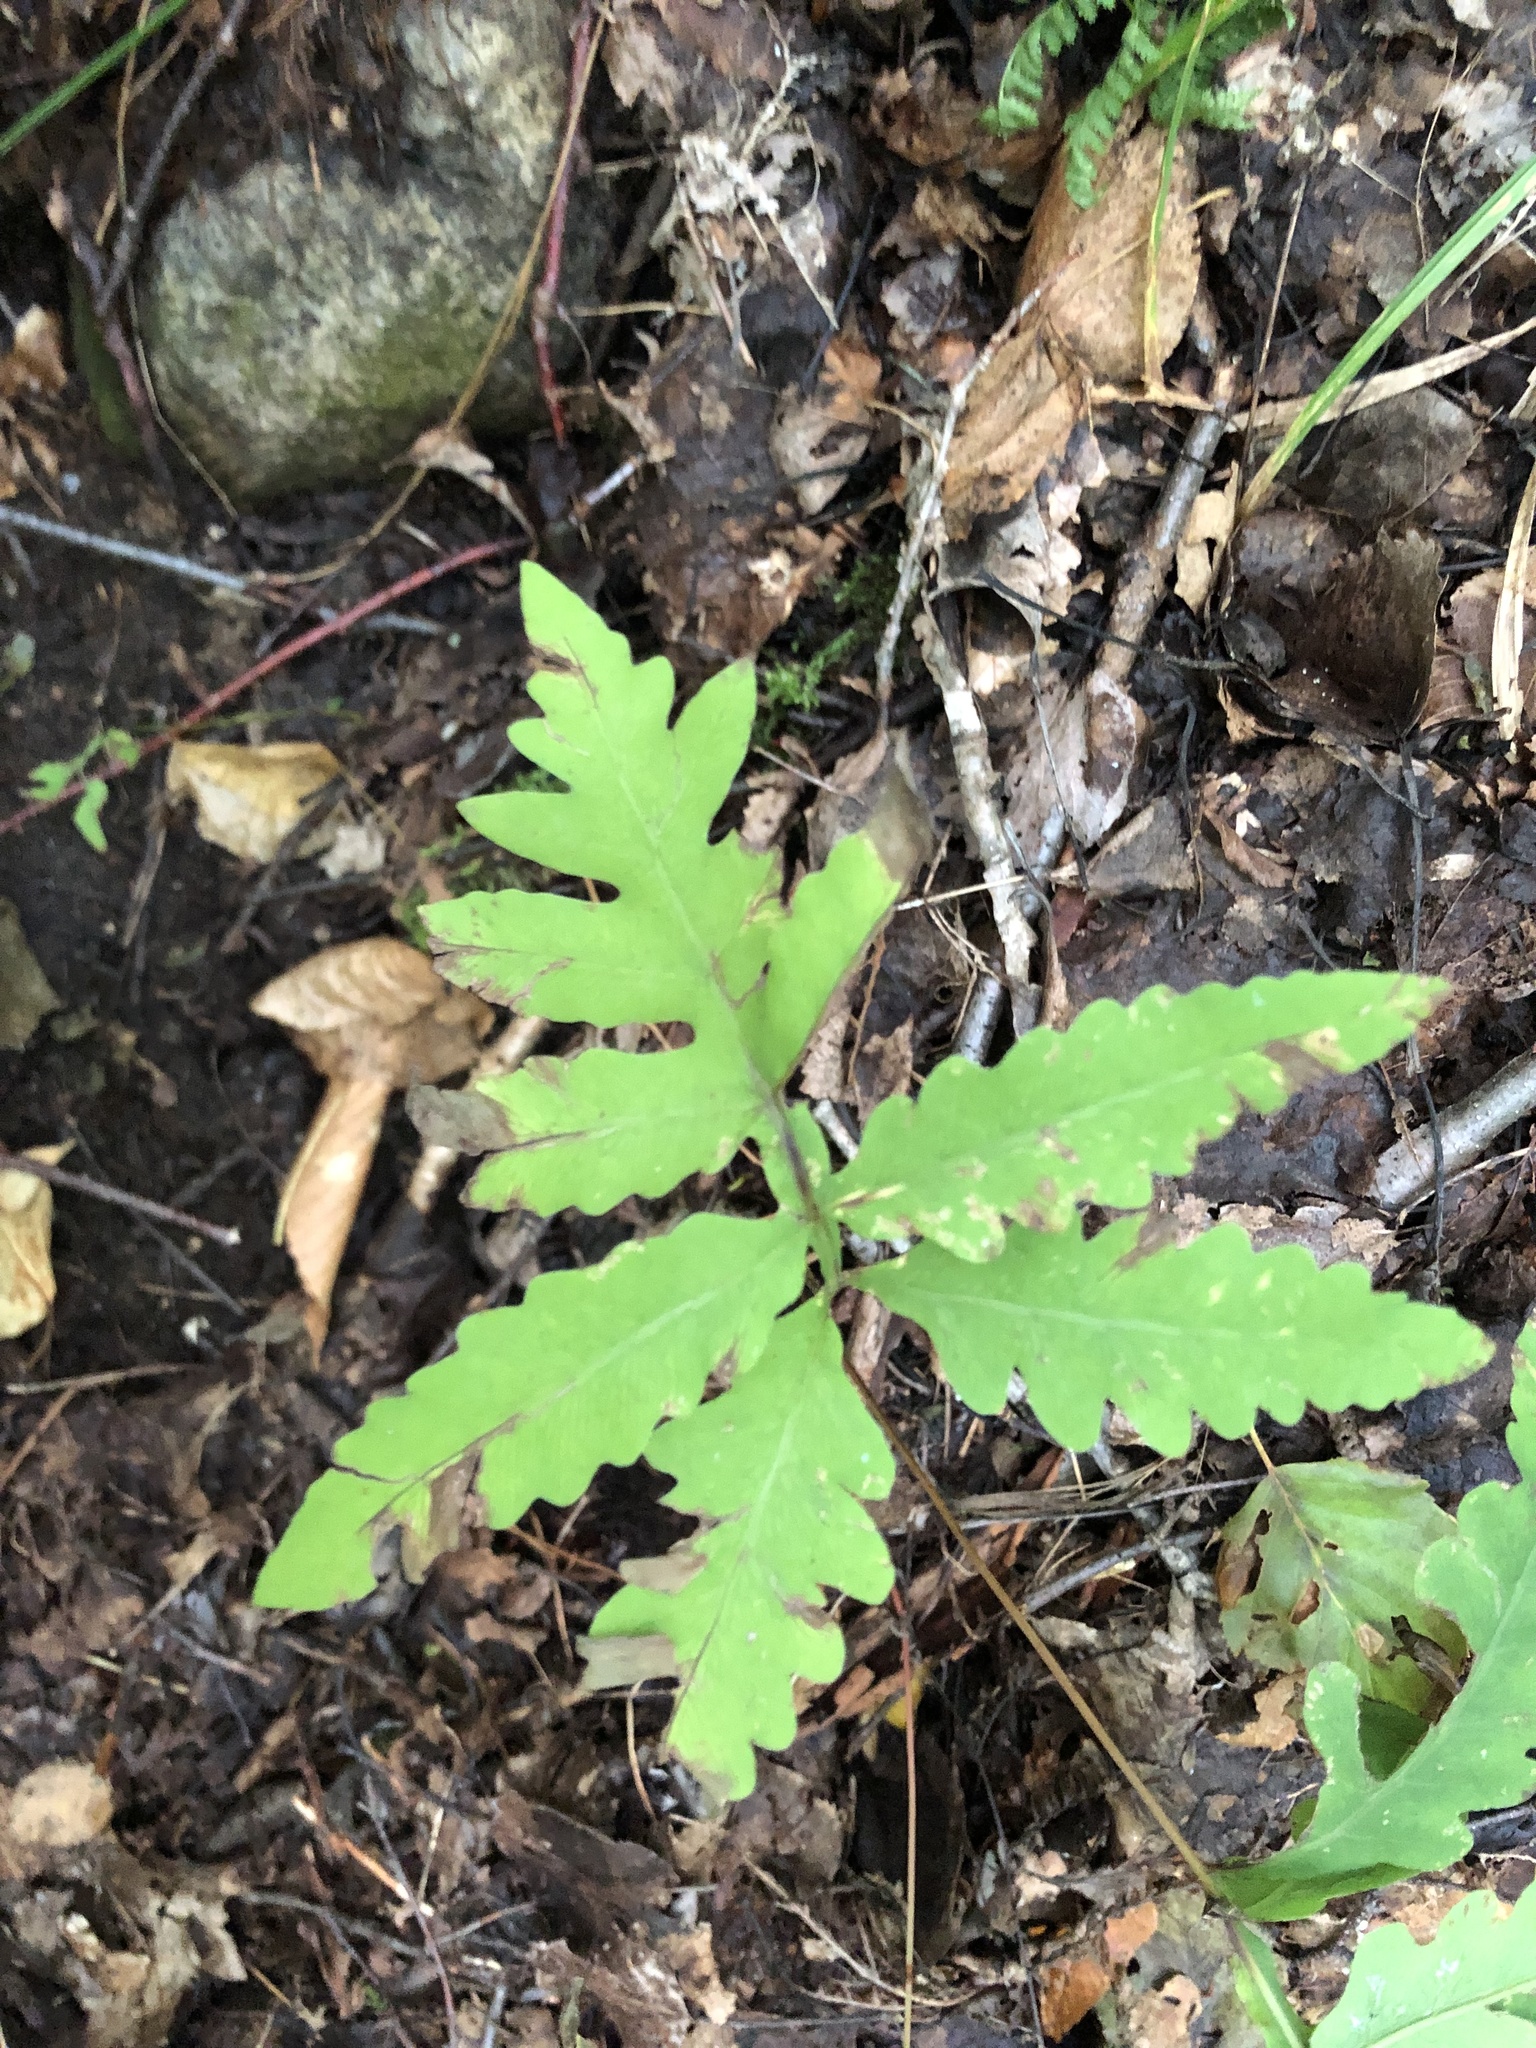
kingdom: Plantae
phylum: Tracheophyta
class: Polypodiopsida
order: Polypodiales
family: Onocleaceae
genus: Onoclea
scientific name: Onoclea sensibilis
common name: Sensitive fern
